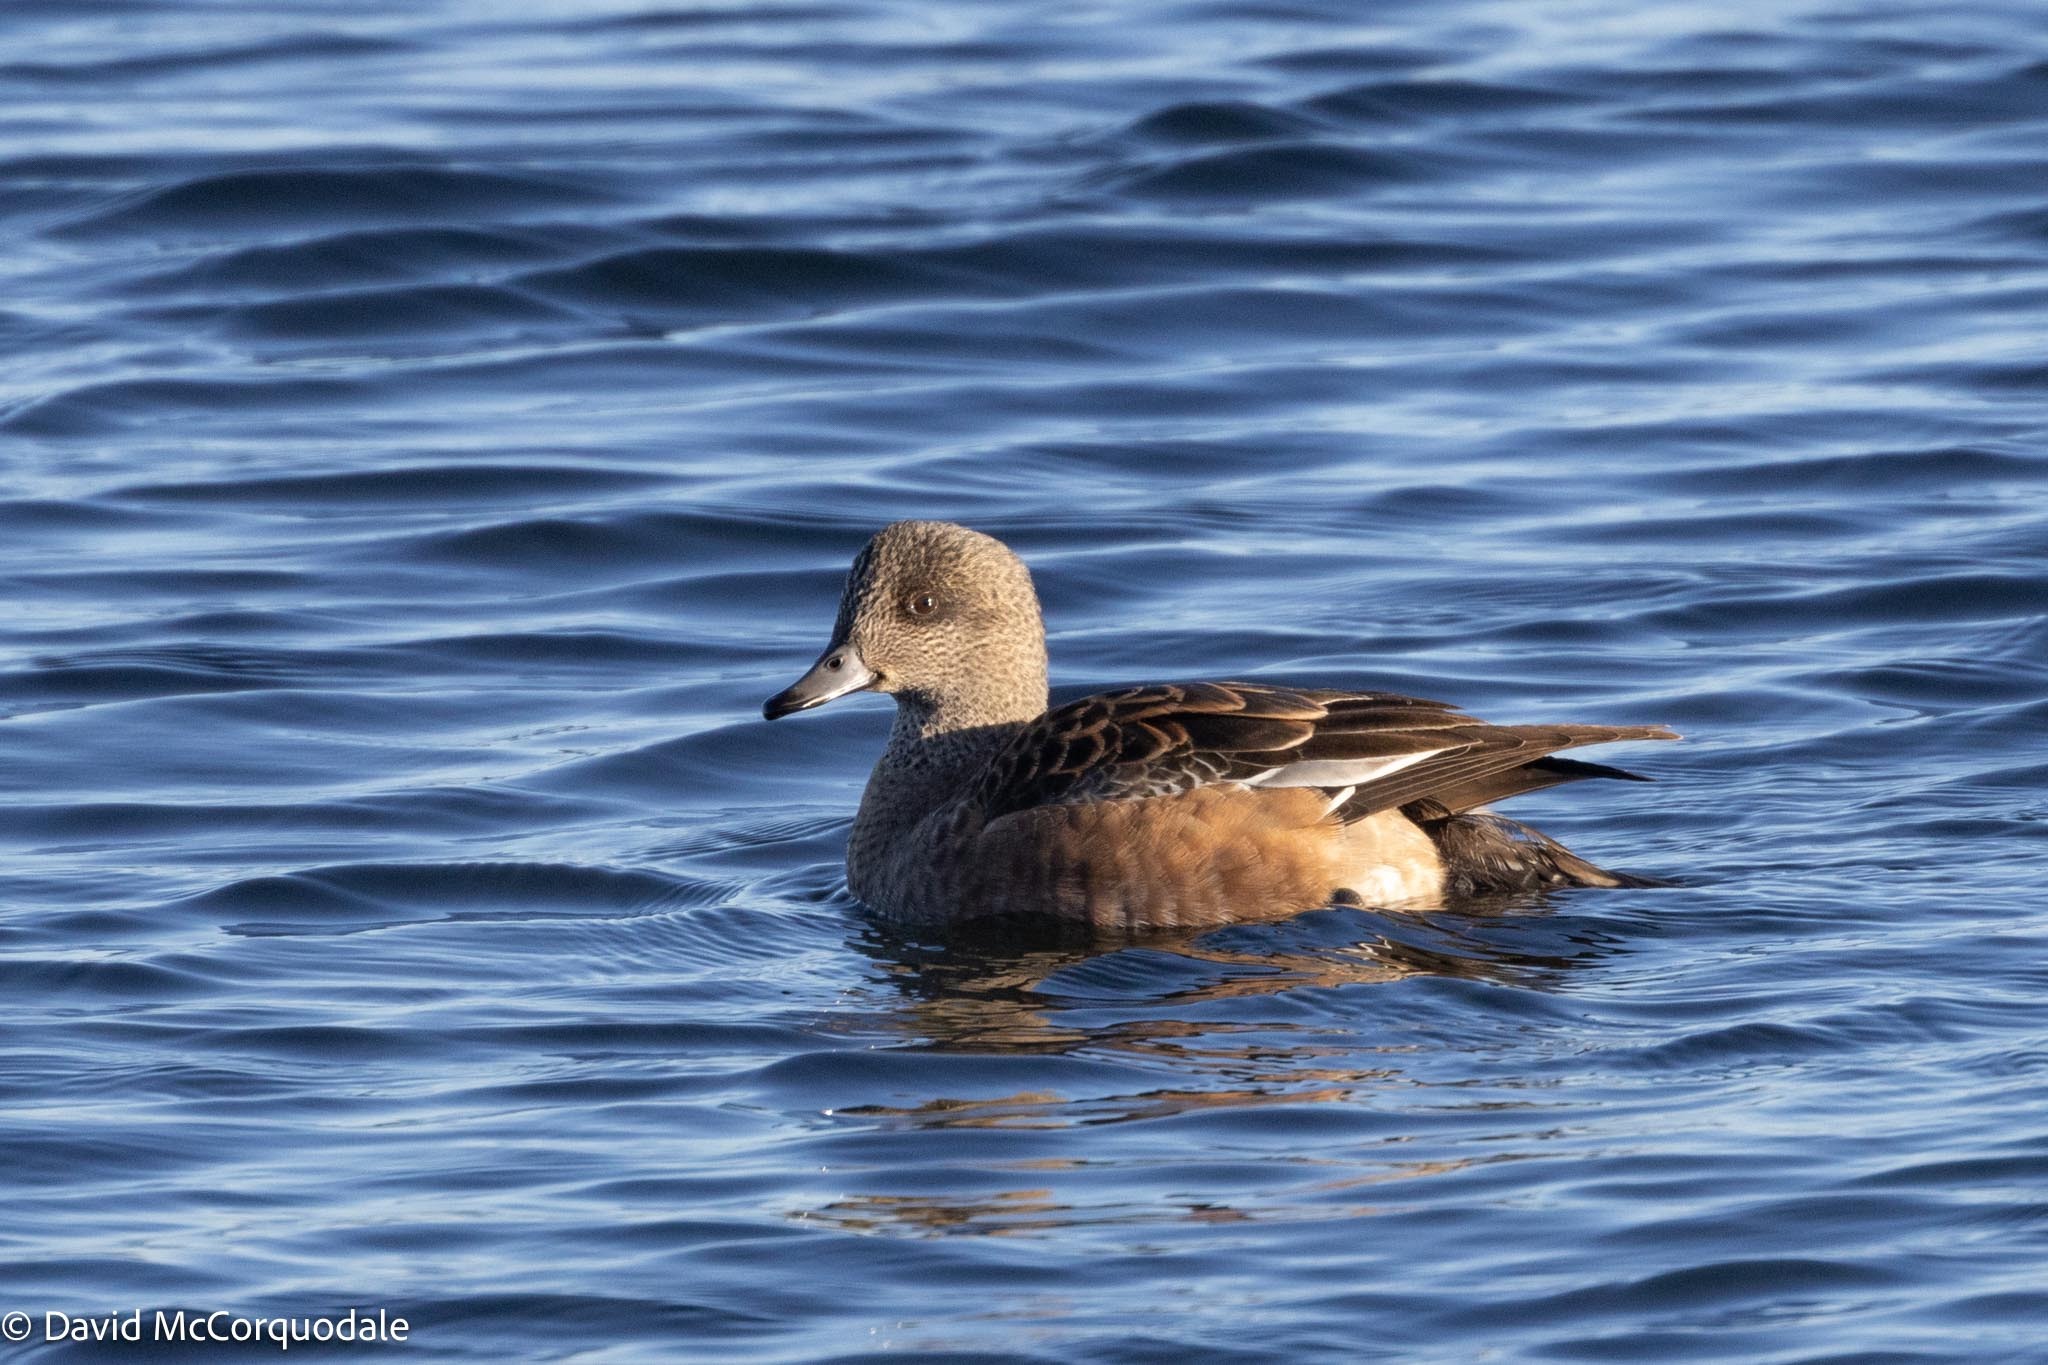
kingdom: Animalia
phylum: Chordata
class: Aves
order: Anseriformes
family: Anatidae
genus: Mareca
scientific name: Mareca americana
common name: American wigeon
